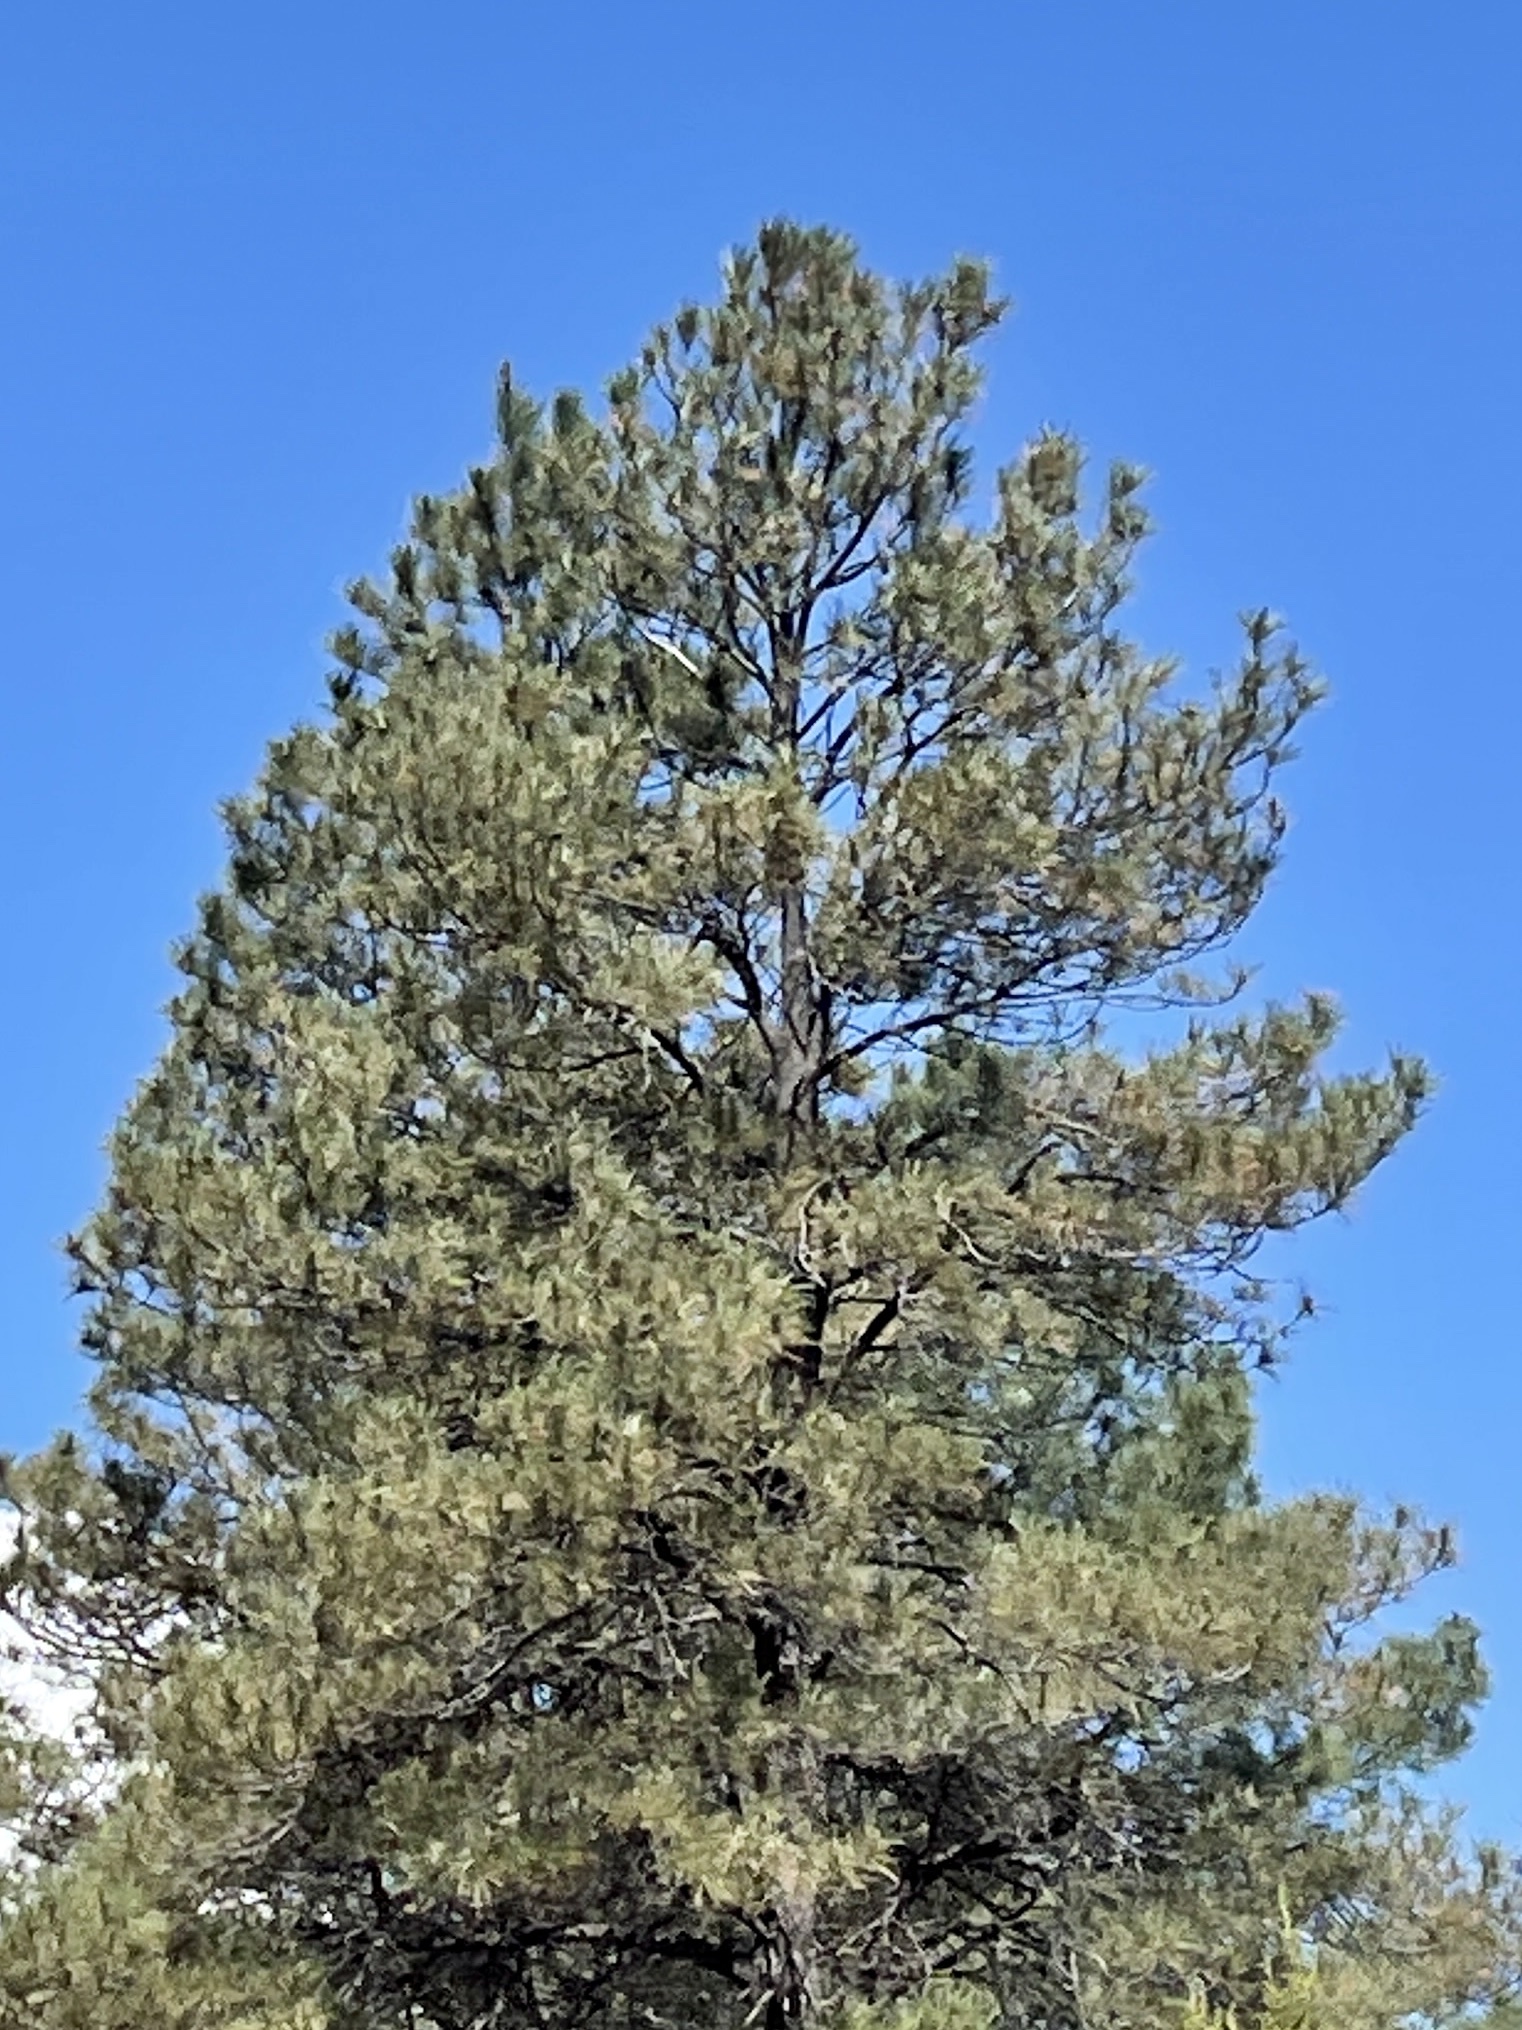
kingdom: Plantae
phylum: Tracheophyta
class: Pinopsida
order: Pinales
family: Pinaceae
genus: Pinus
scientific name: Pinus ponderosa
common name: Western yellow-pine
